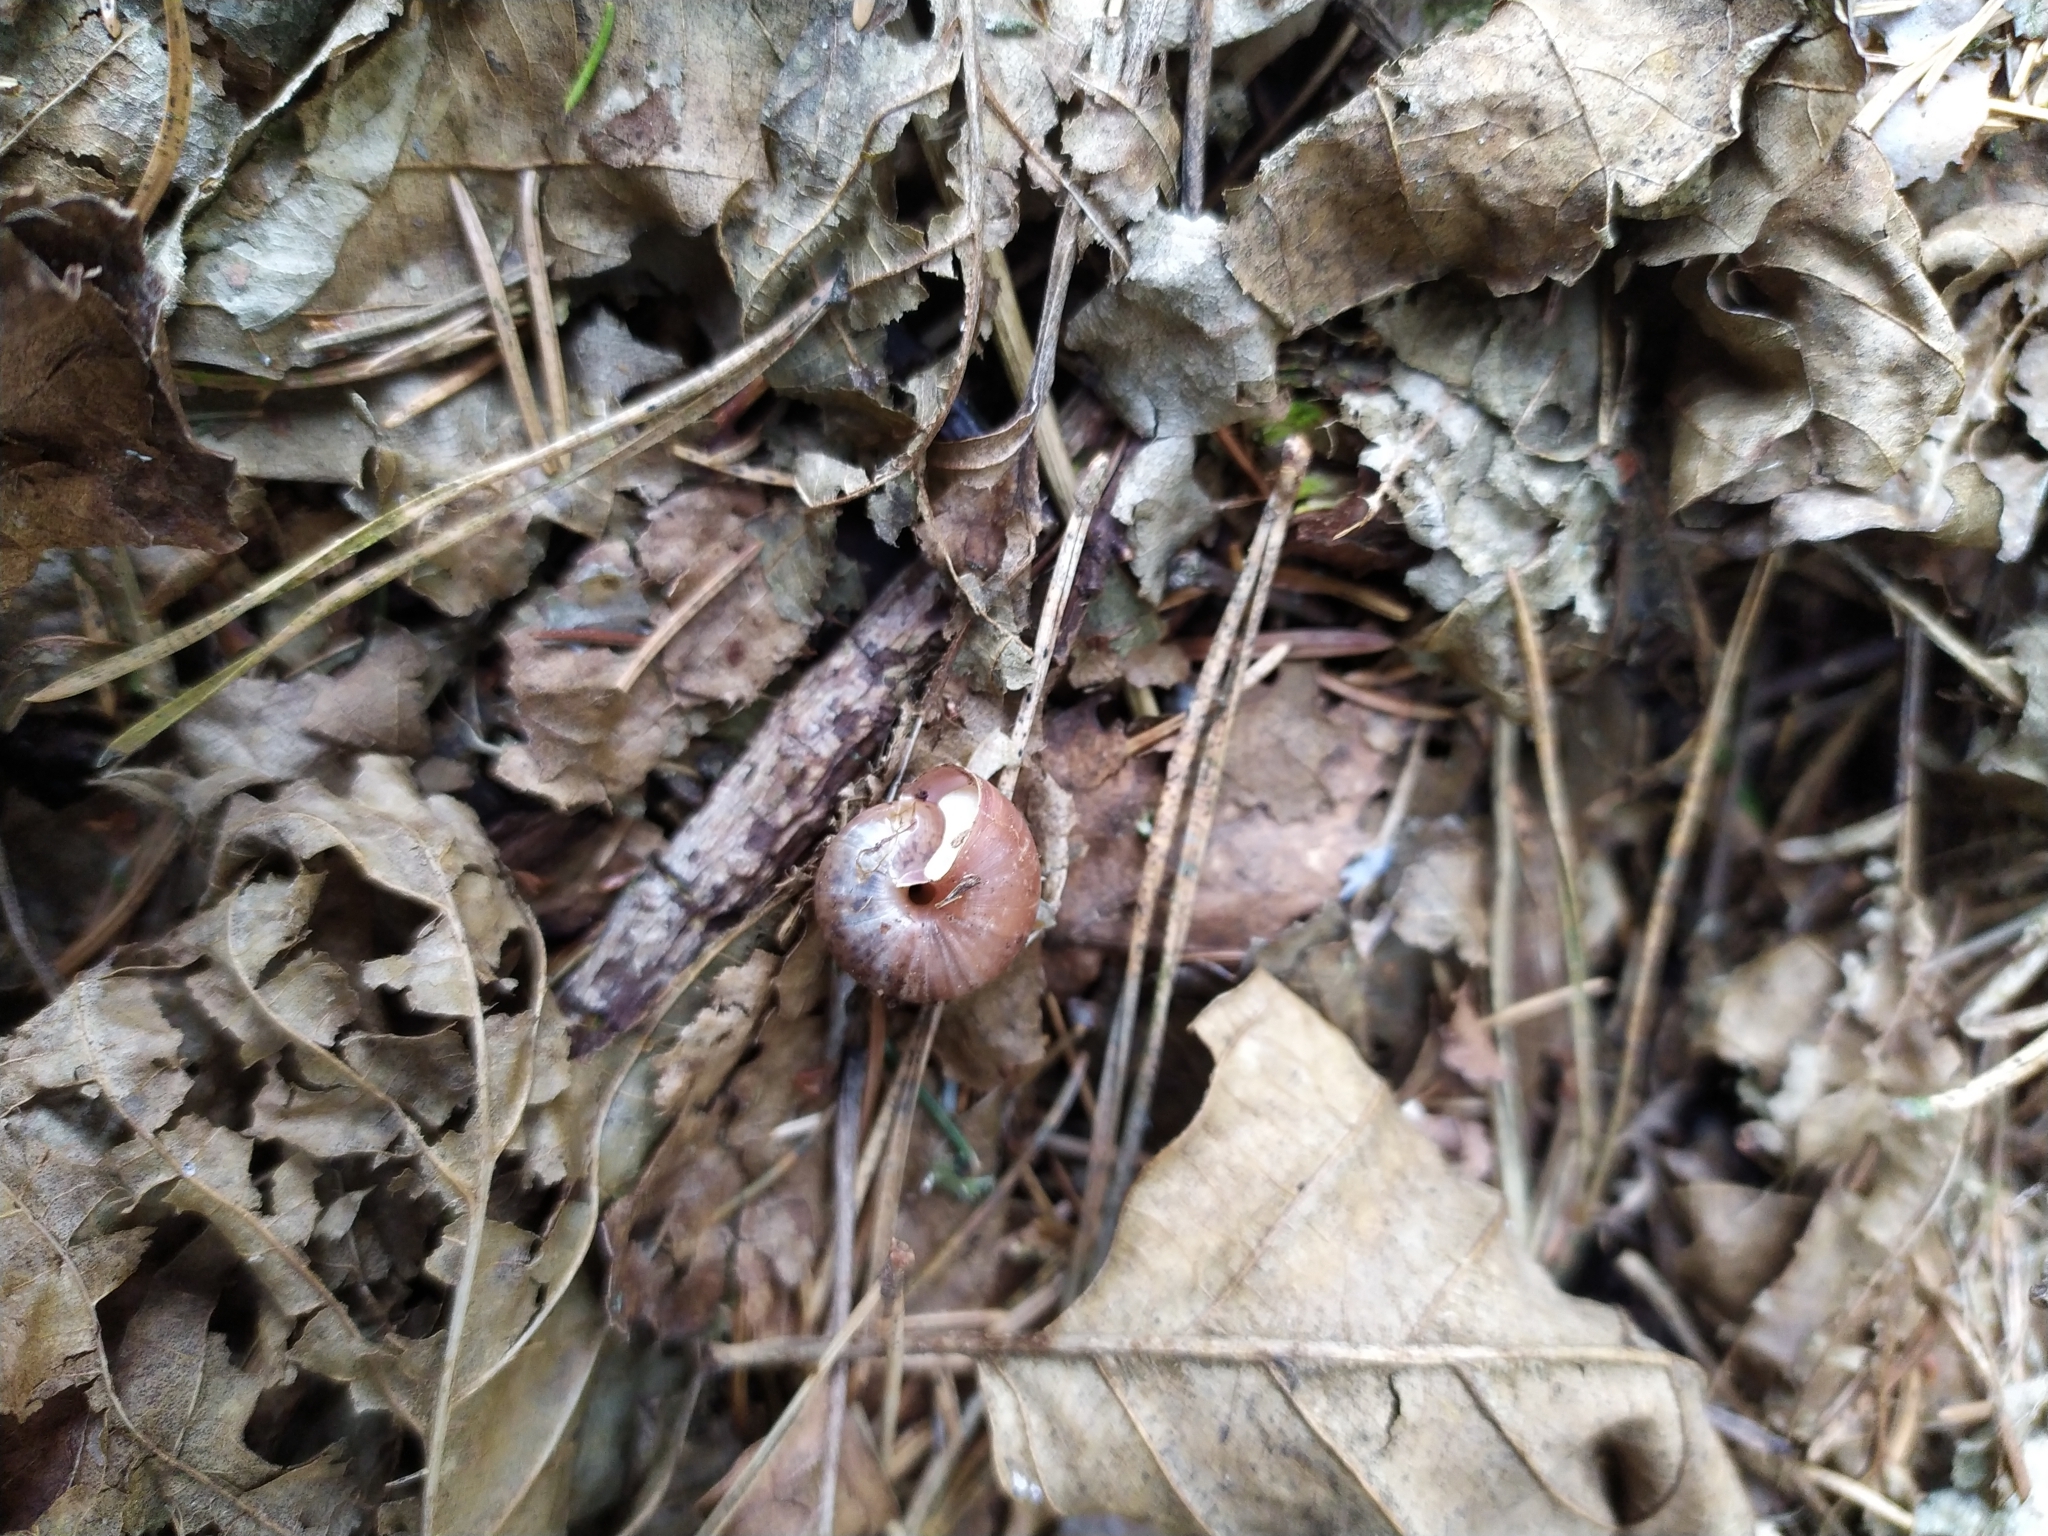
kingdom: Animalia
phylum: Mollusca
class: Gastropoda
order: Stylommatophora
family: Camaenidae
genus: Fruticicola
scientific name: Fruticicola fruticum
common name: Bush snail
